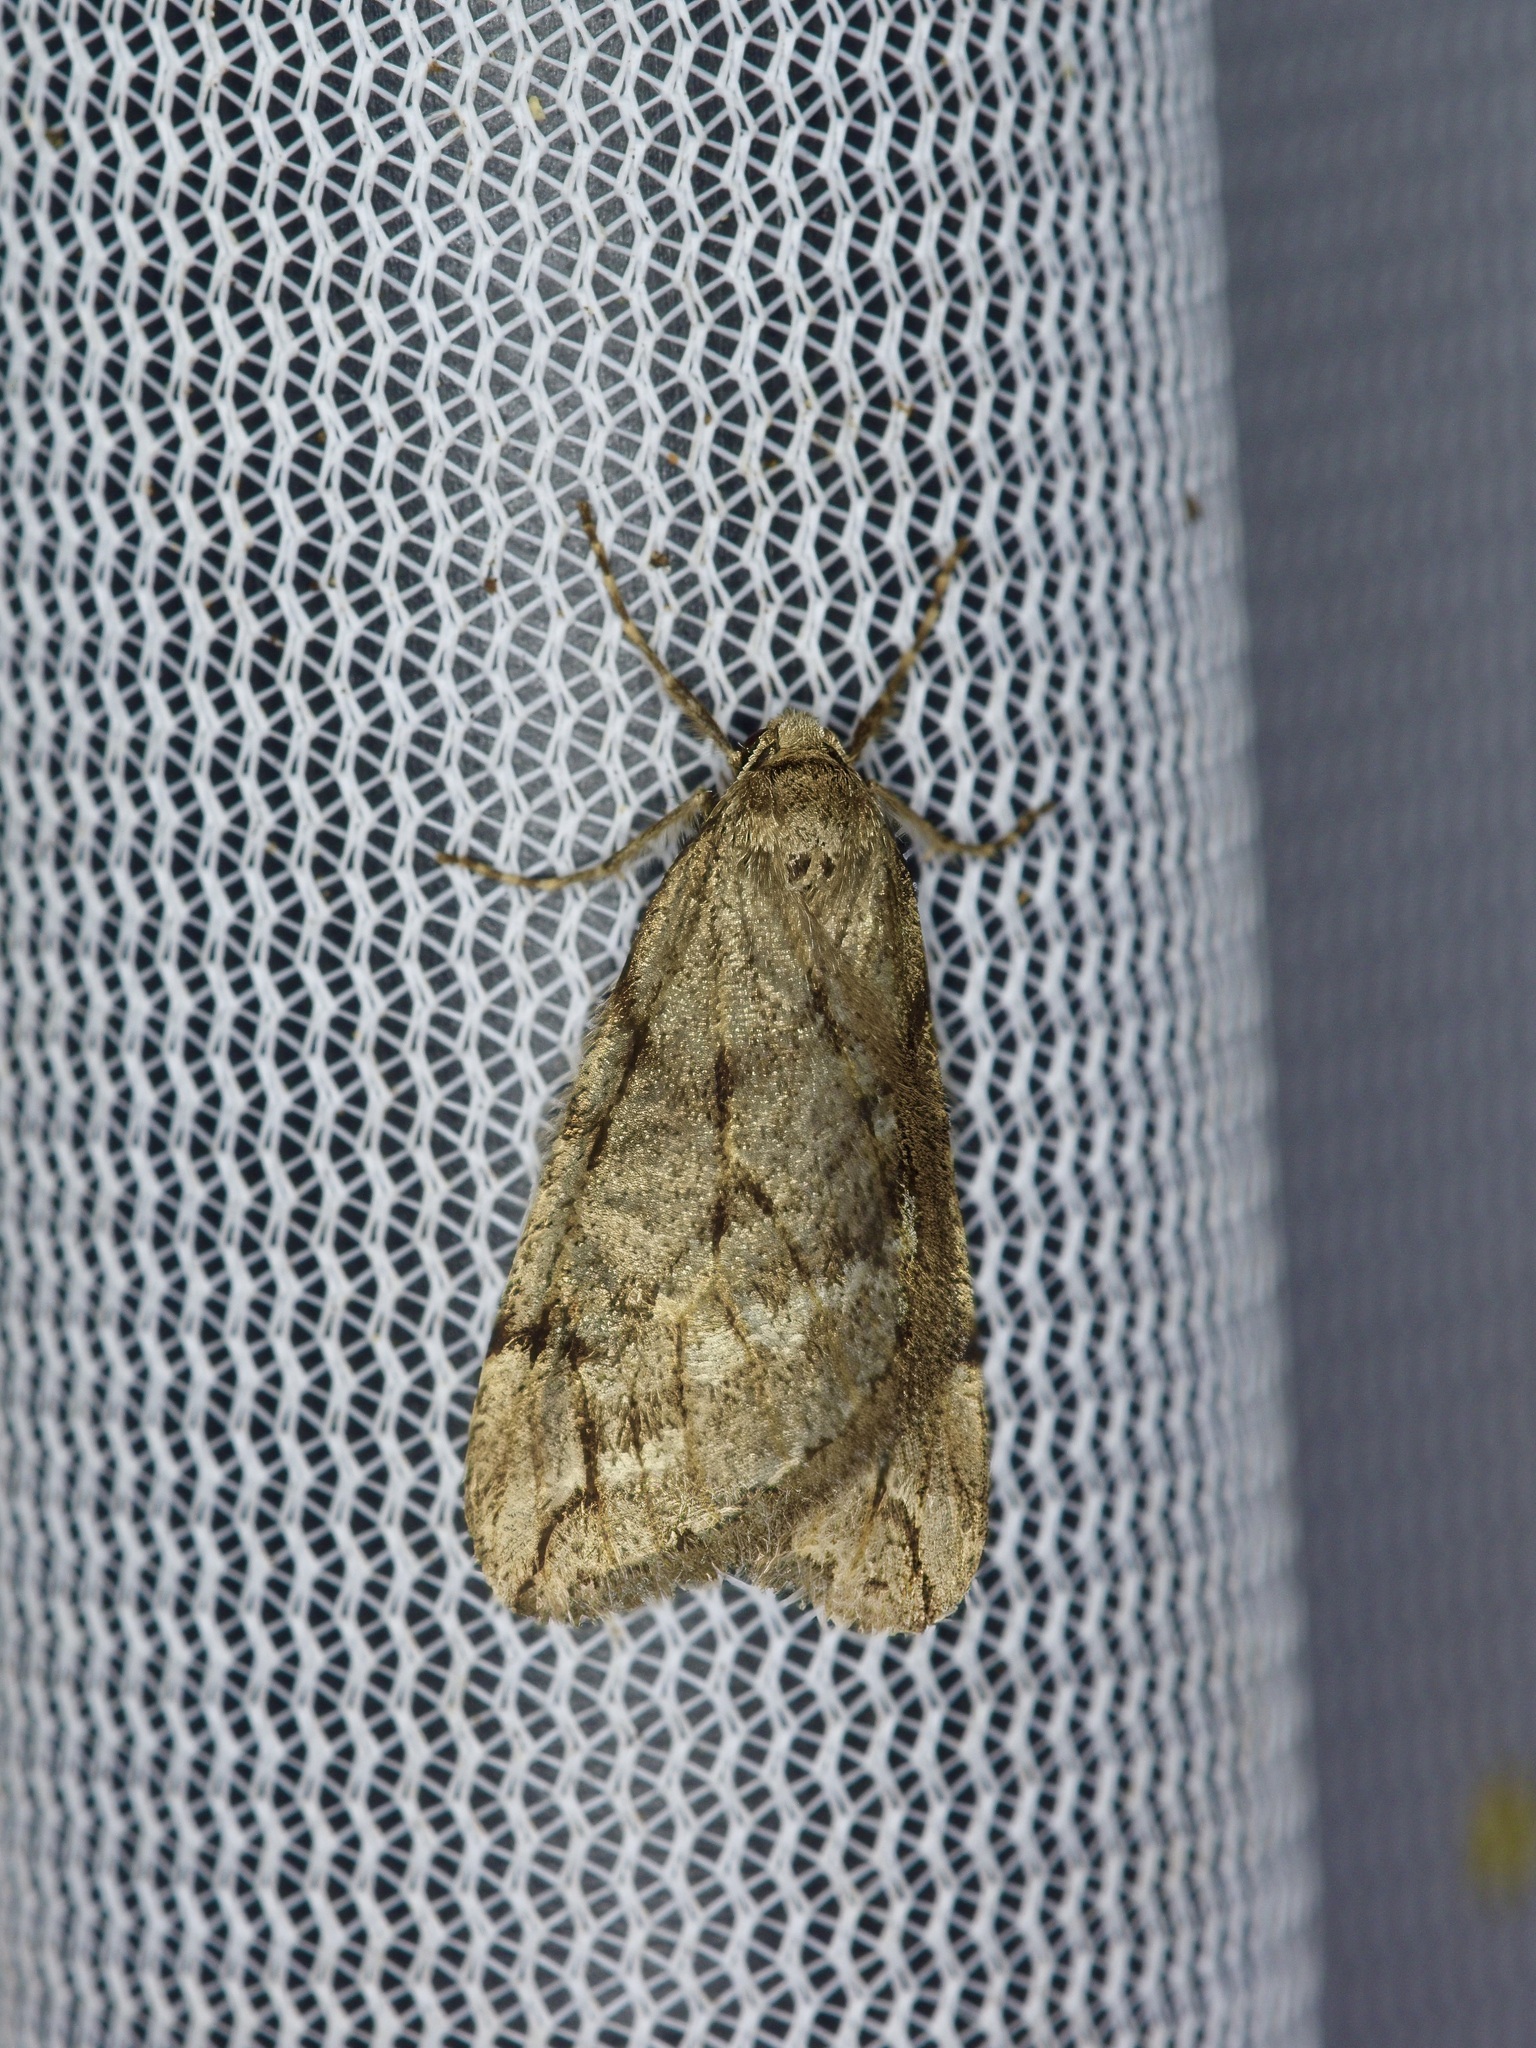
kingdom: Animalia
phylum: Arthropoda
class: Insecta
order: Lepidoptera
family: Geometridae
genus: Paleacrita
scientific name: Paleacrita vernata
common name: Spring cankerworm
